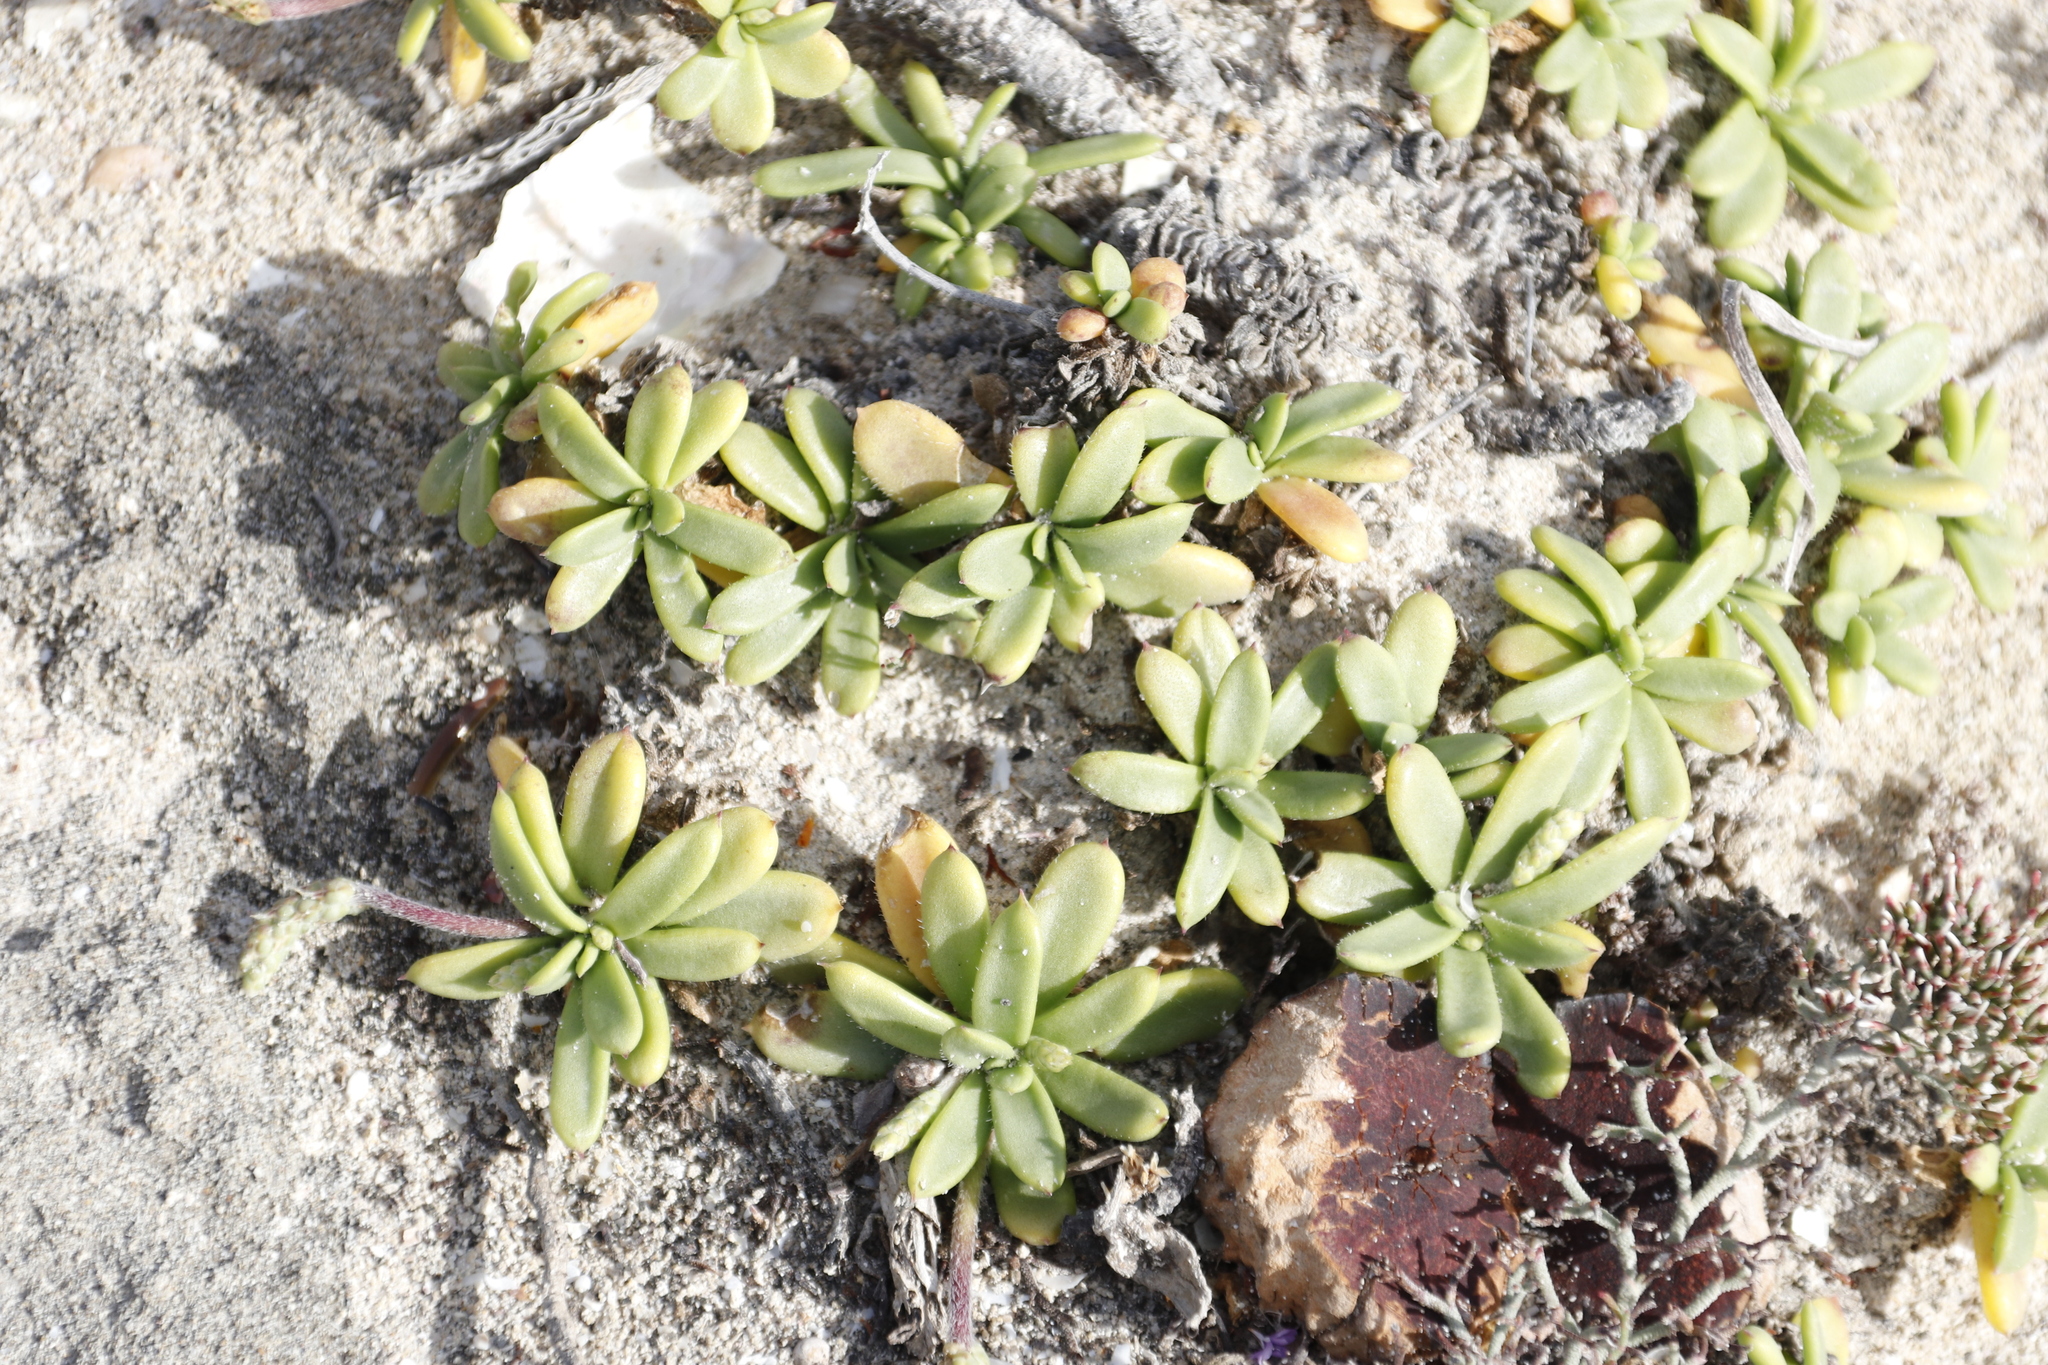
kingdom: Plantae
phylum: Tracheophyta
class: Magnoliopsida
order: Lamiales
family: Plantaginaceae
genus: Plantago
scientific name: Plantago carnosa
